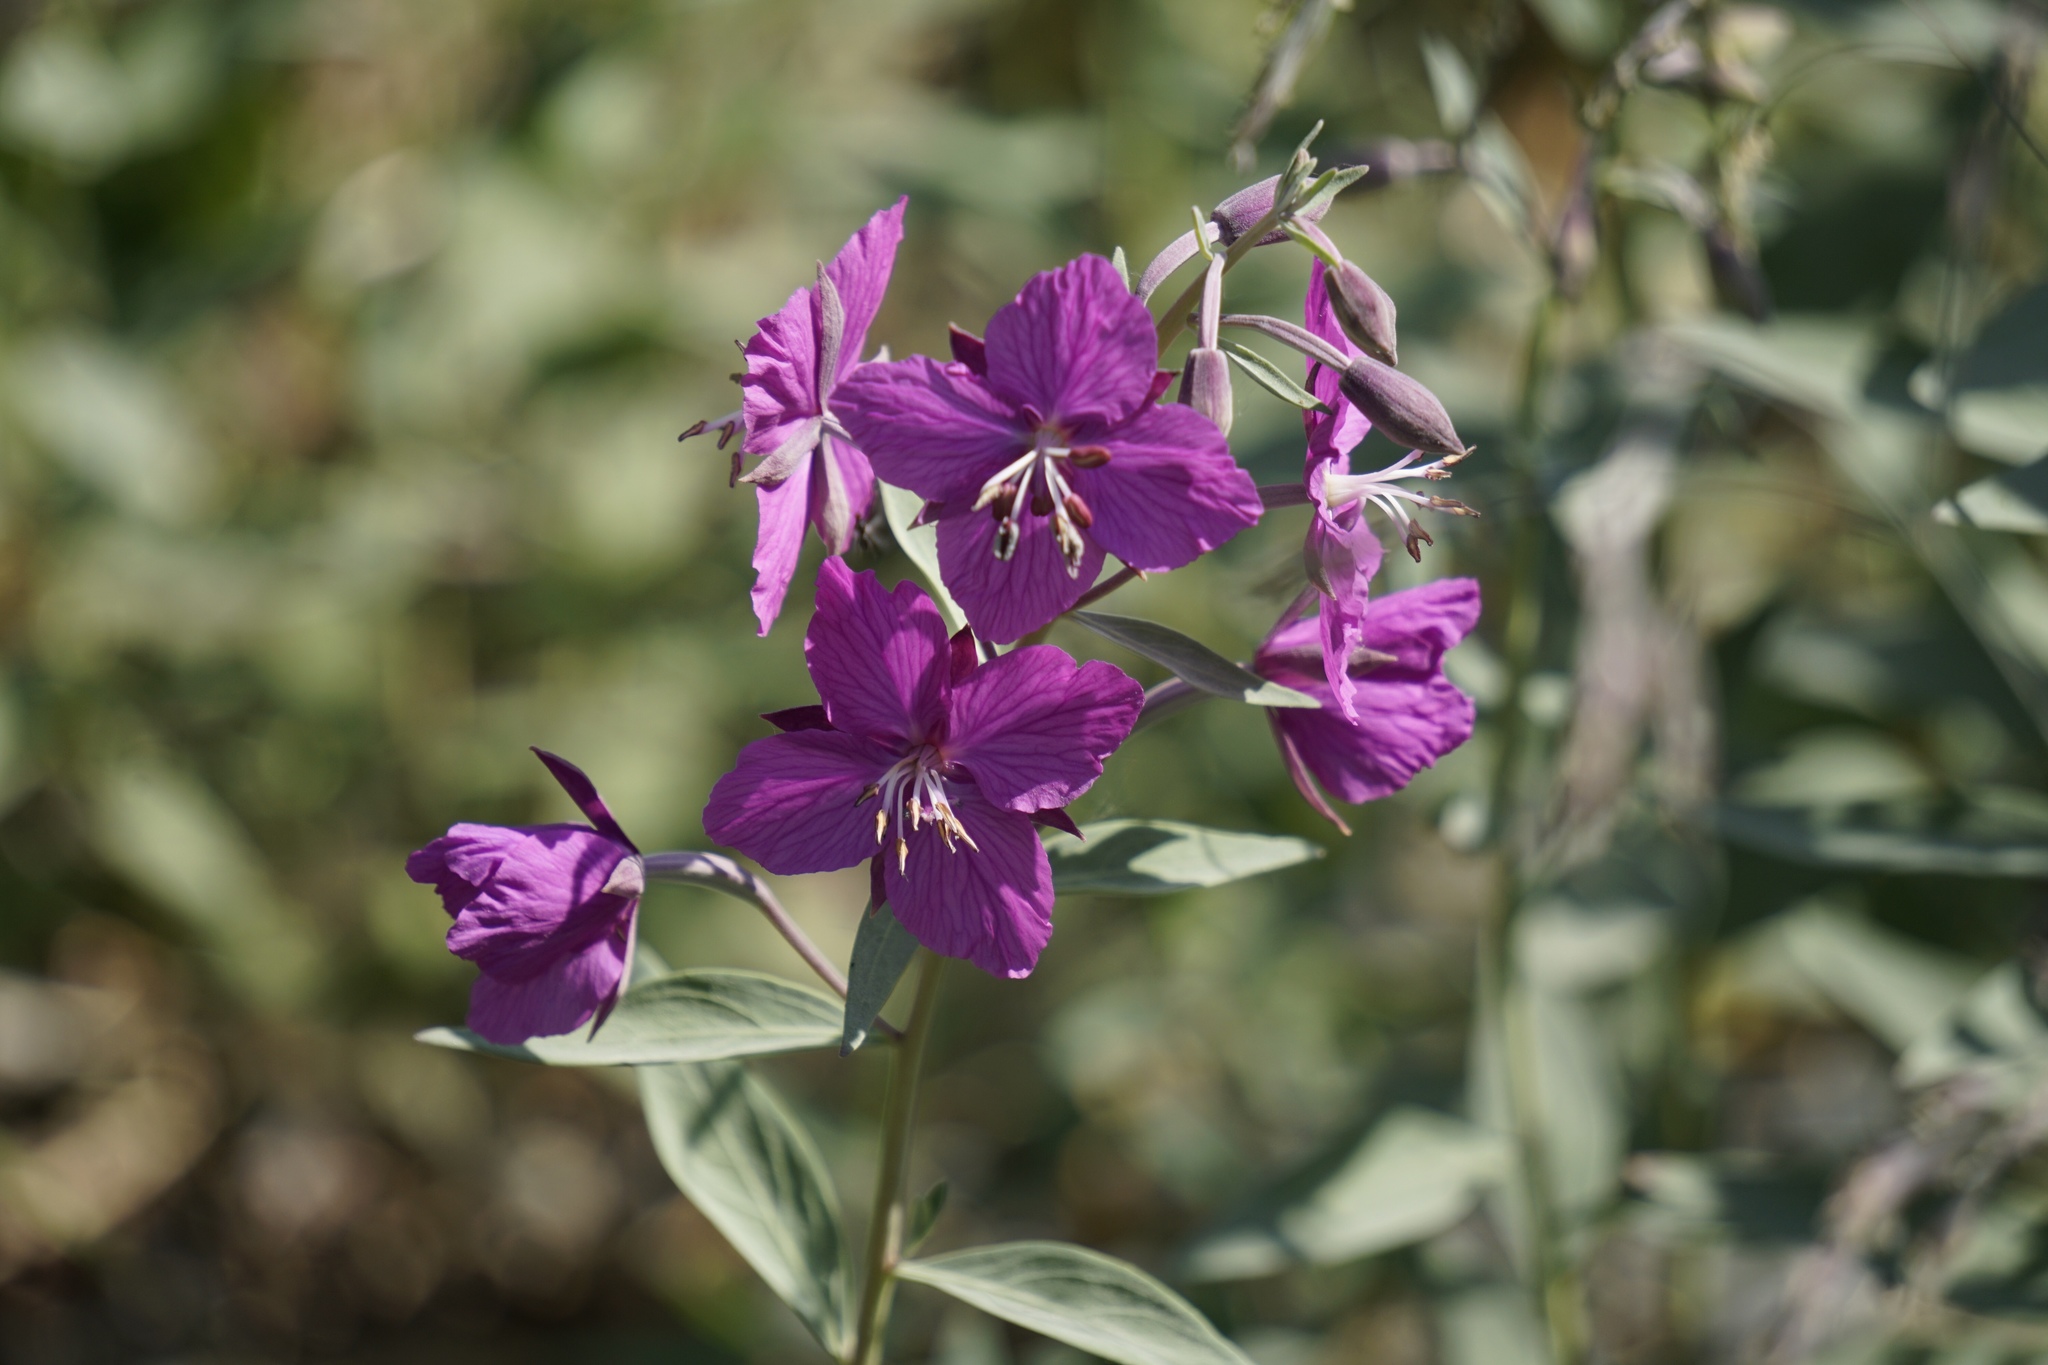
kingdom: Plantae
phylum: Tracheophyta
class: Magnoliopsida
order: Myrtales
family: Onagraceae
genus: Chamaenerion
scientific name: Chamaenerion latifolium
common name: Dwarf fireweed
